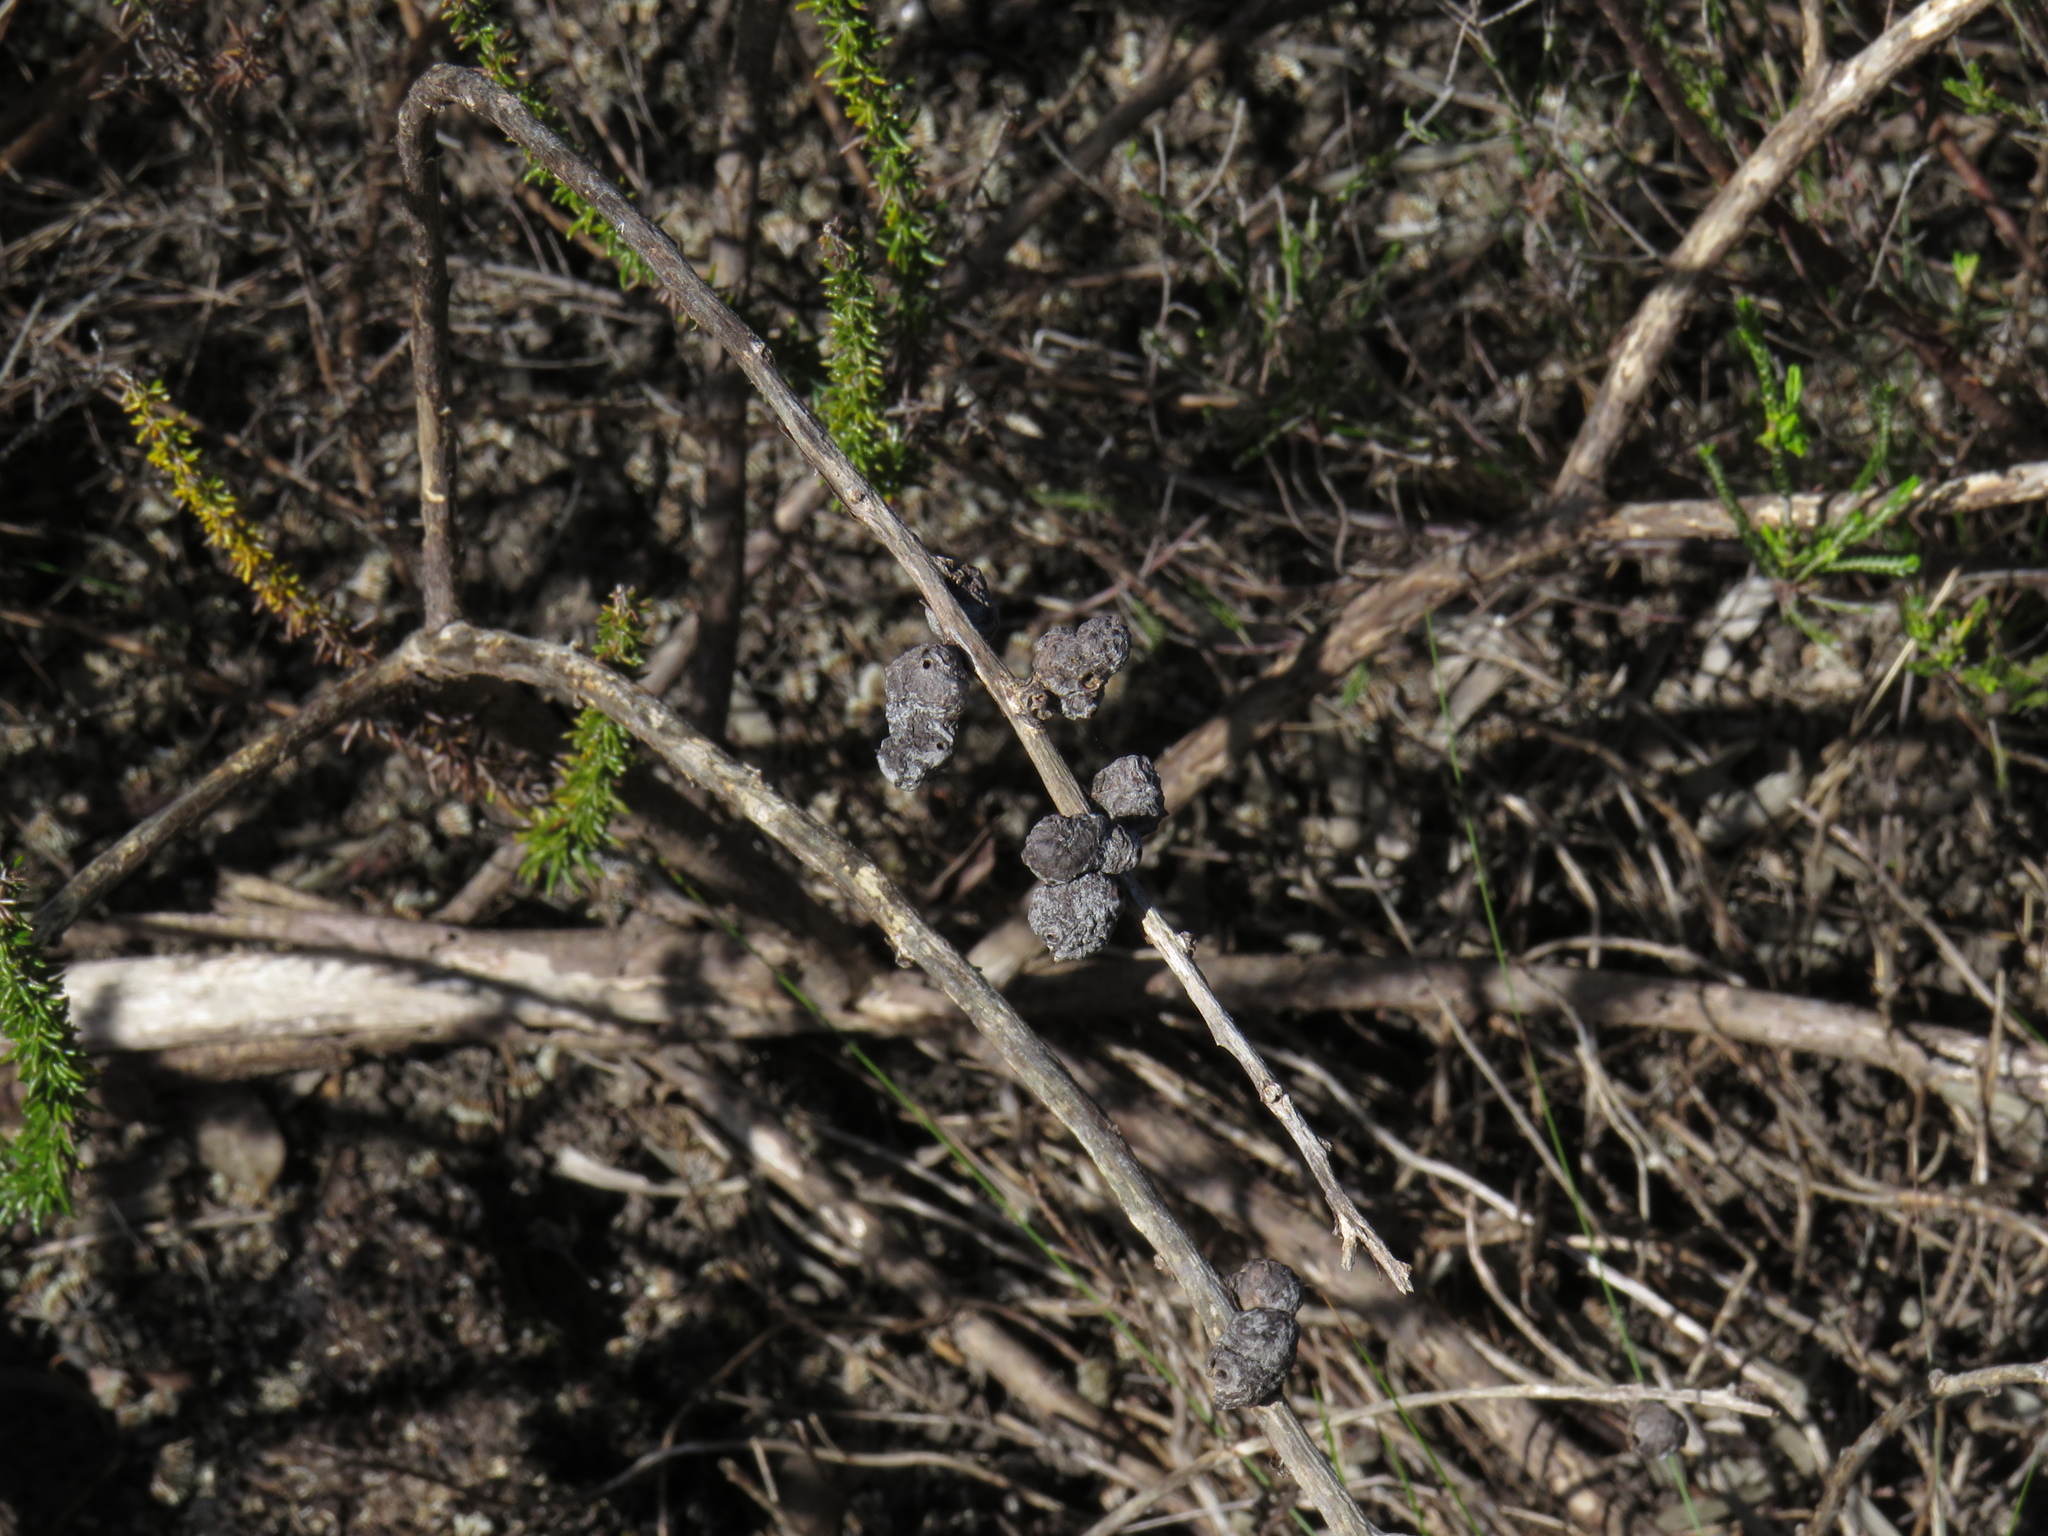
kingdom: Animalia
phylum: Arthropoda
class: Insecta
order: Hymenoptera
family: Pteromalidae
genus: Trichilogaster
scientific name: Trichilogaster acaciaelongifoliae
